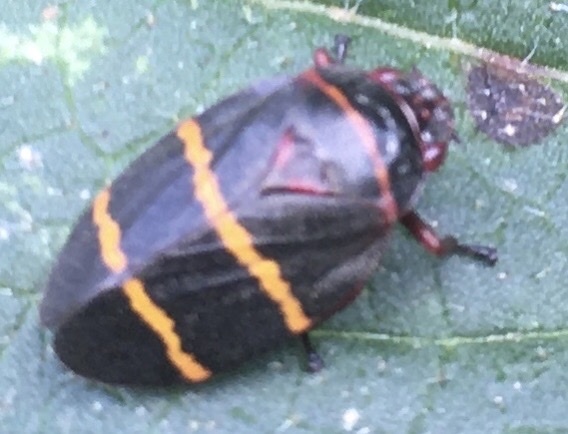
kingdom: Animalia
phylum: Arthropoda
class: Insecta
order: Hemiptera
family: Cercopidae
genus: Prosapia
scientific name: Prosapia bicincta
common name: Twolined spittlebug
